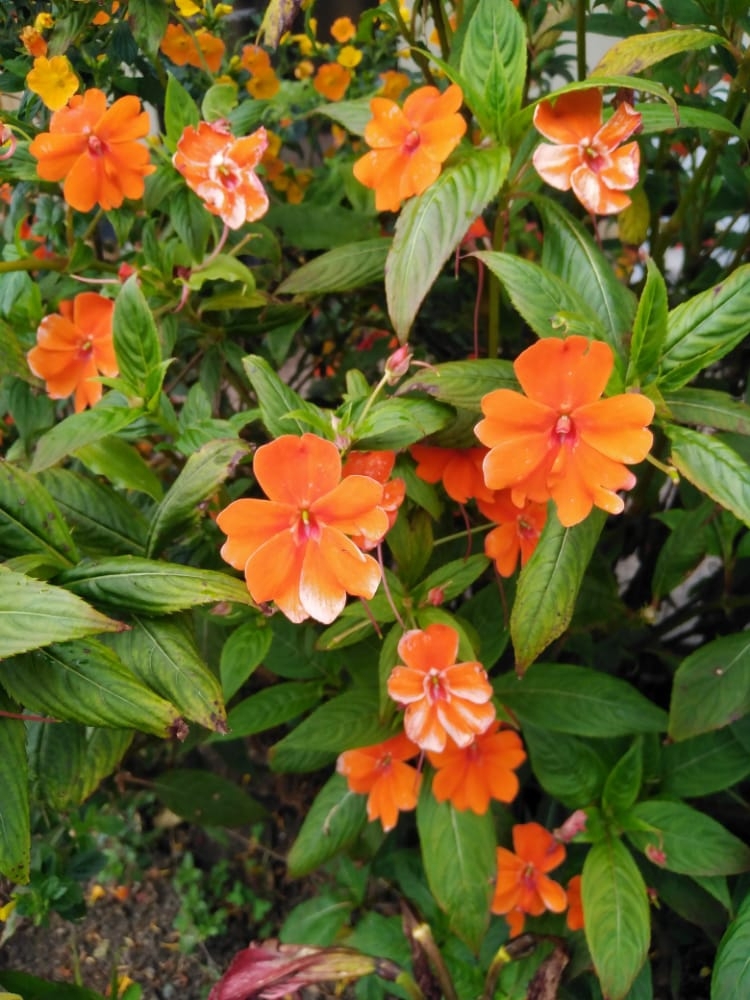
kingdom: Plantae
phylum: Tracheophyta
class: Magnoliopsida
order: Ericales
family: Balsaminaceae
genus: Impatiens
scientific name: Impatiens hawkeri
